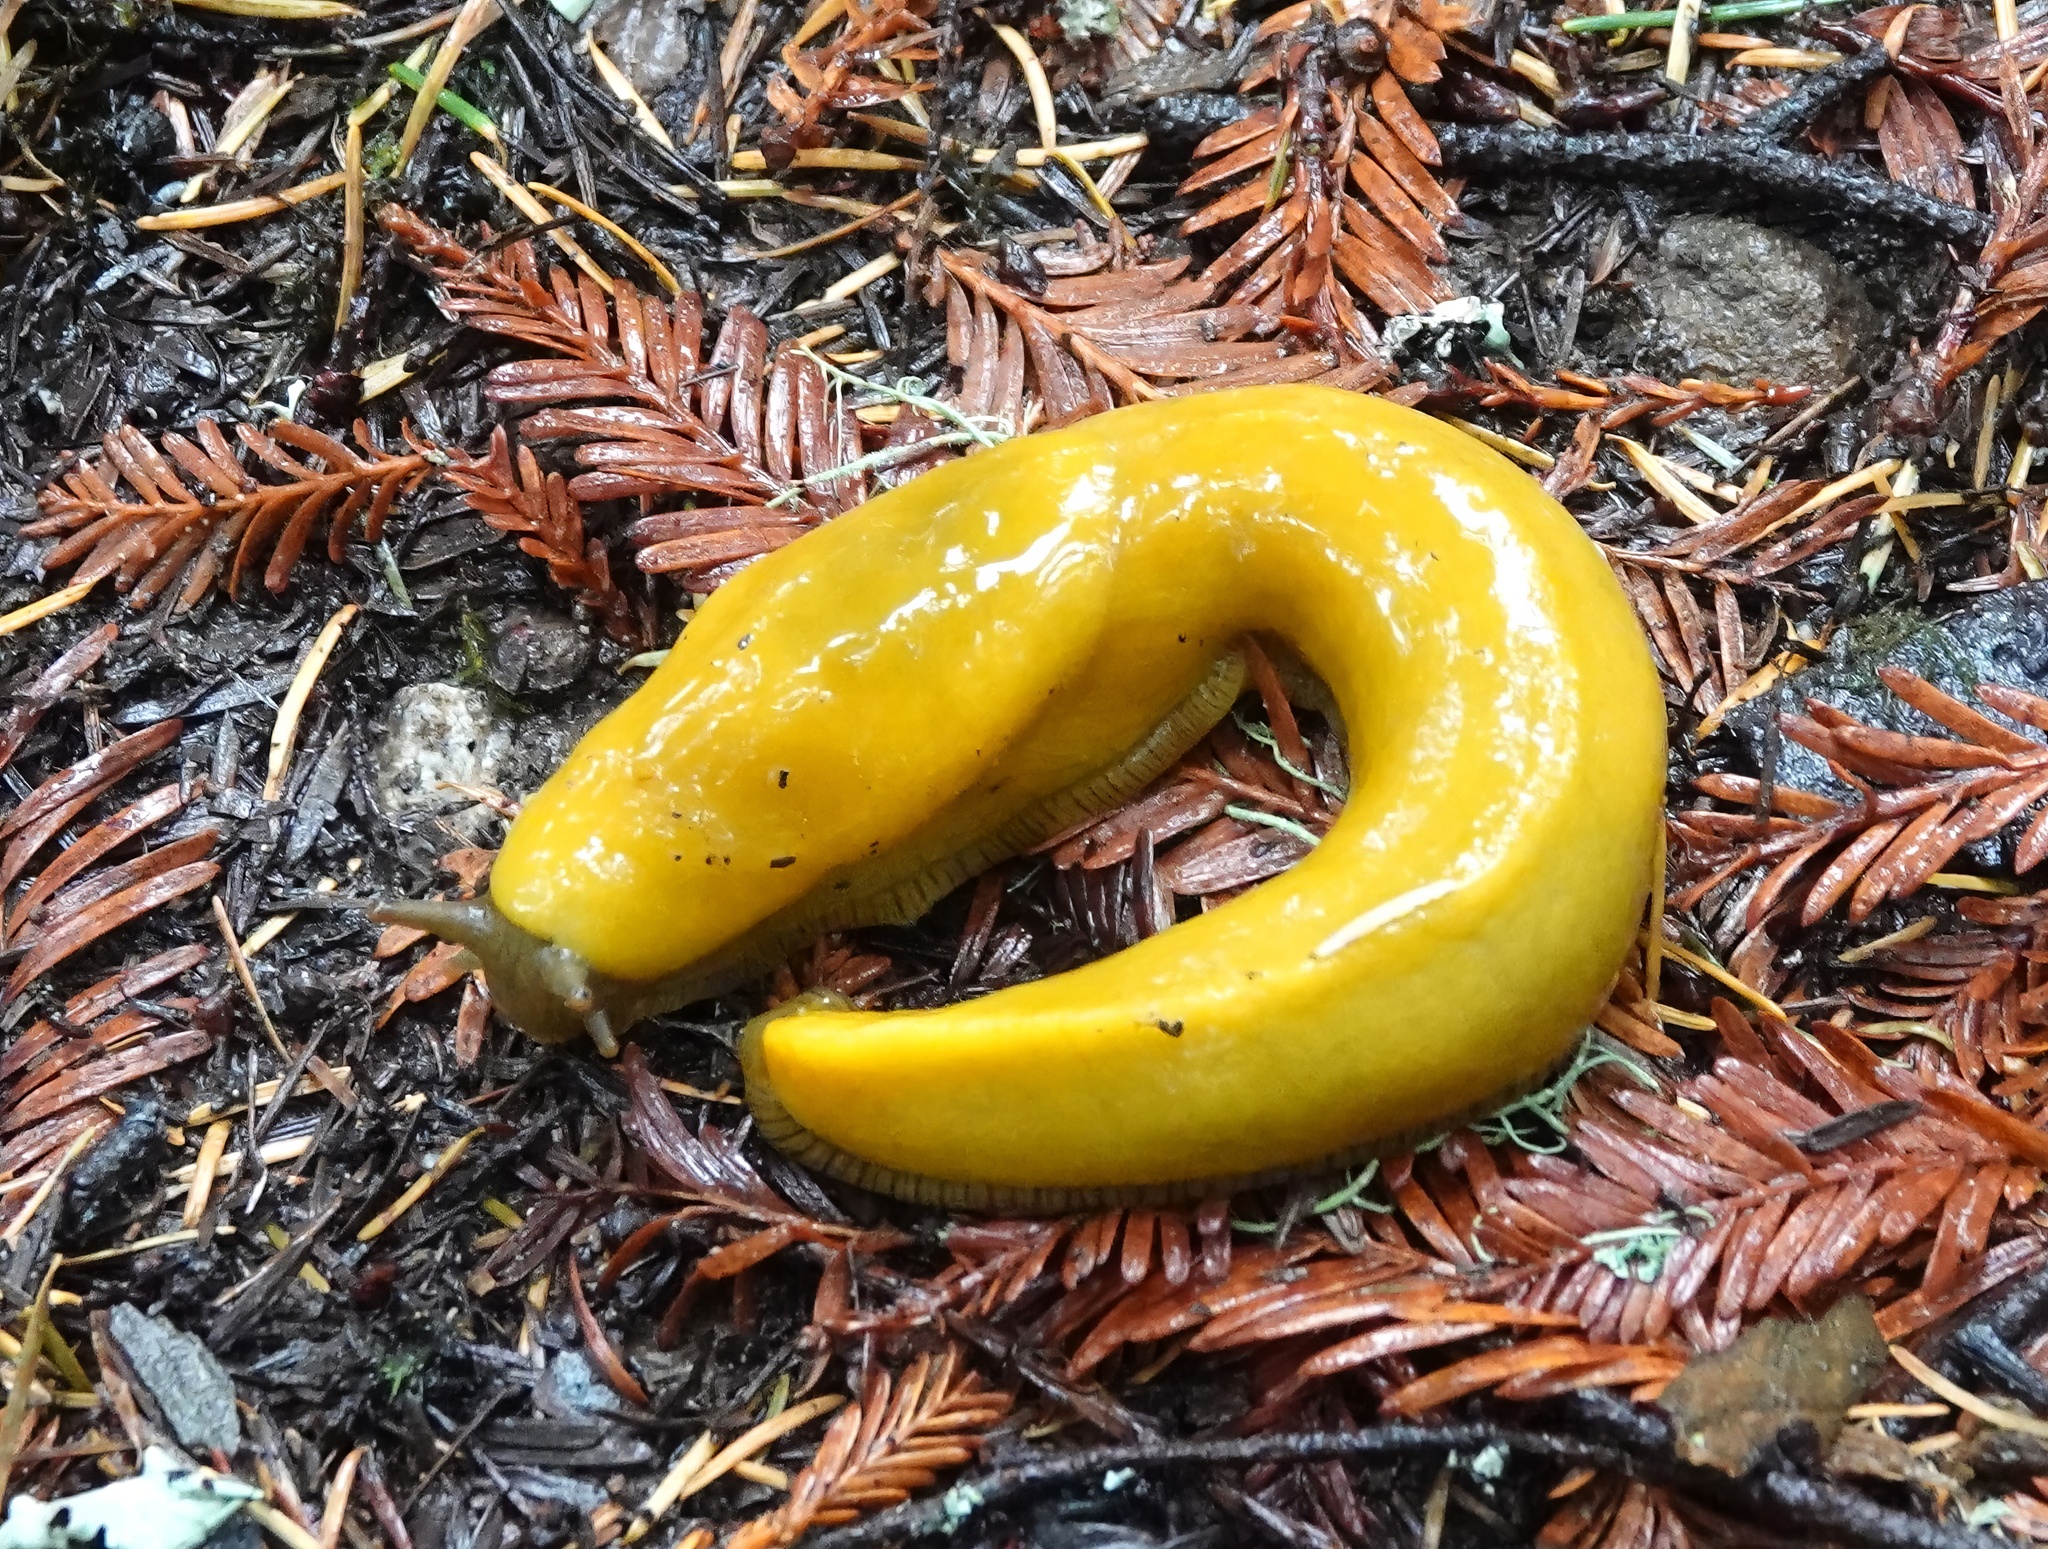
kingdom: Animalia
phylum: Mollusca
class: Gastropoda
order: Stylommatophora
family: Ariolimacidae
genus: Ariolimax
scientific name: Ariolimax californicus
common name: California banana slug
